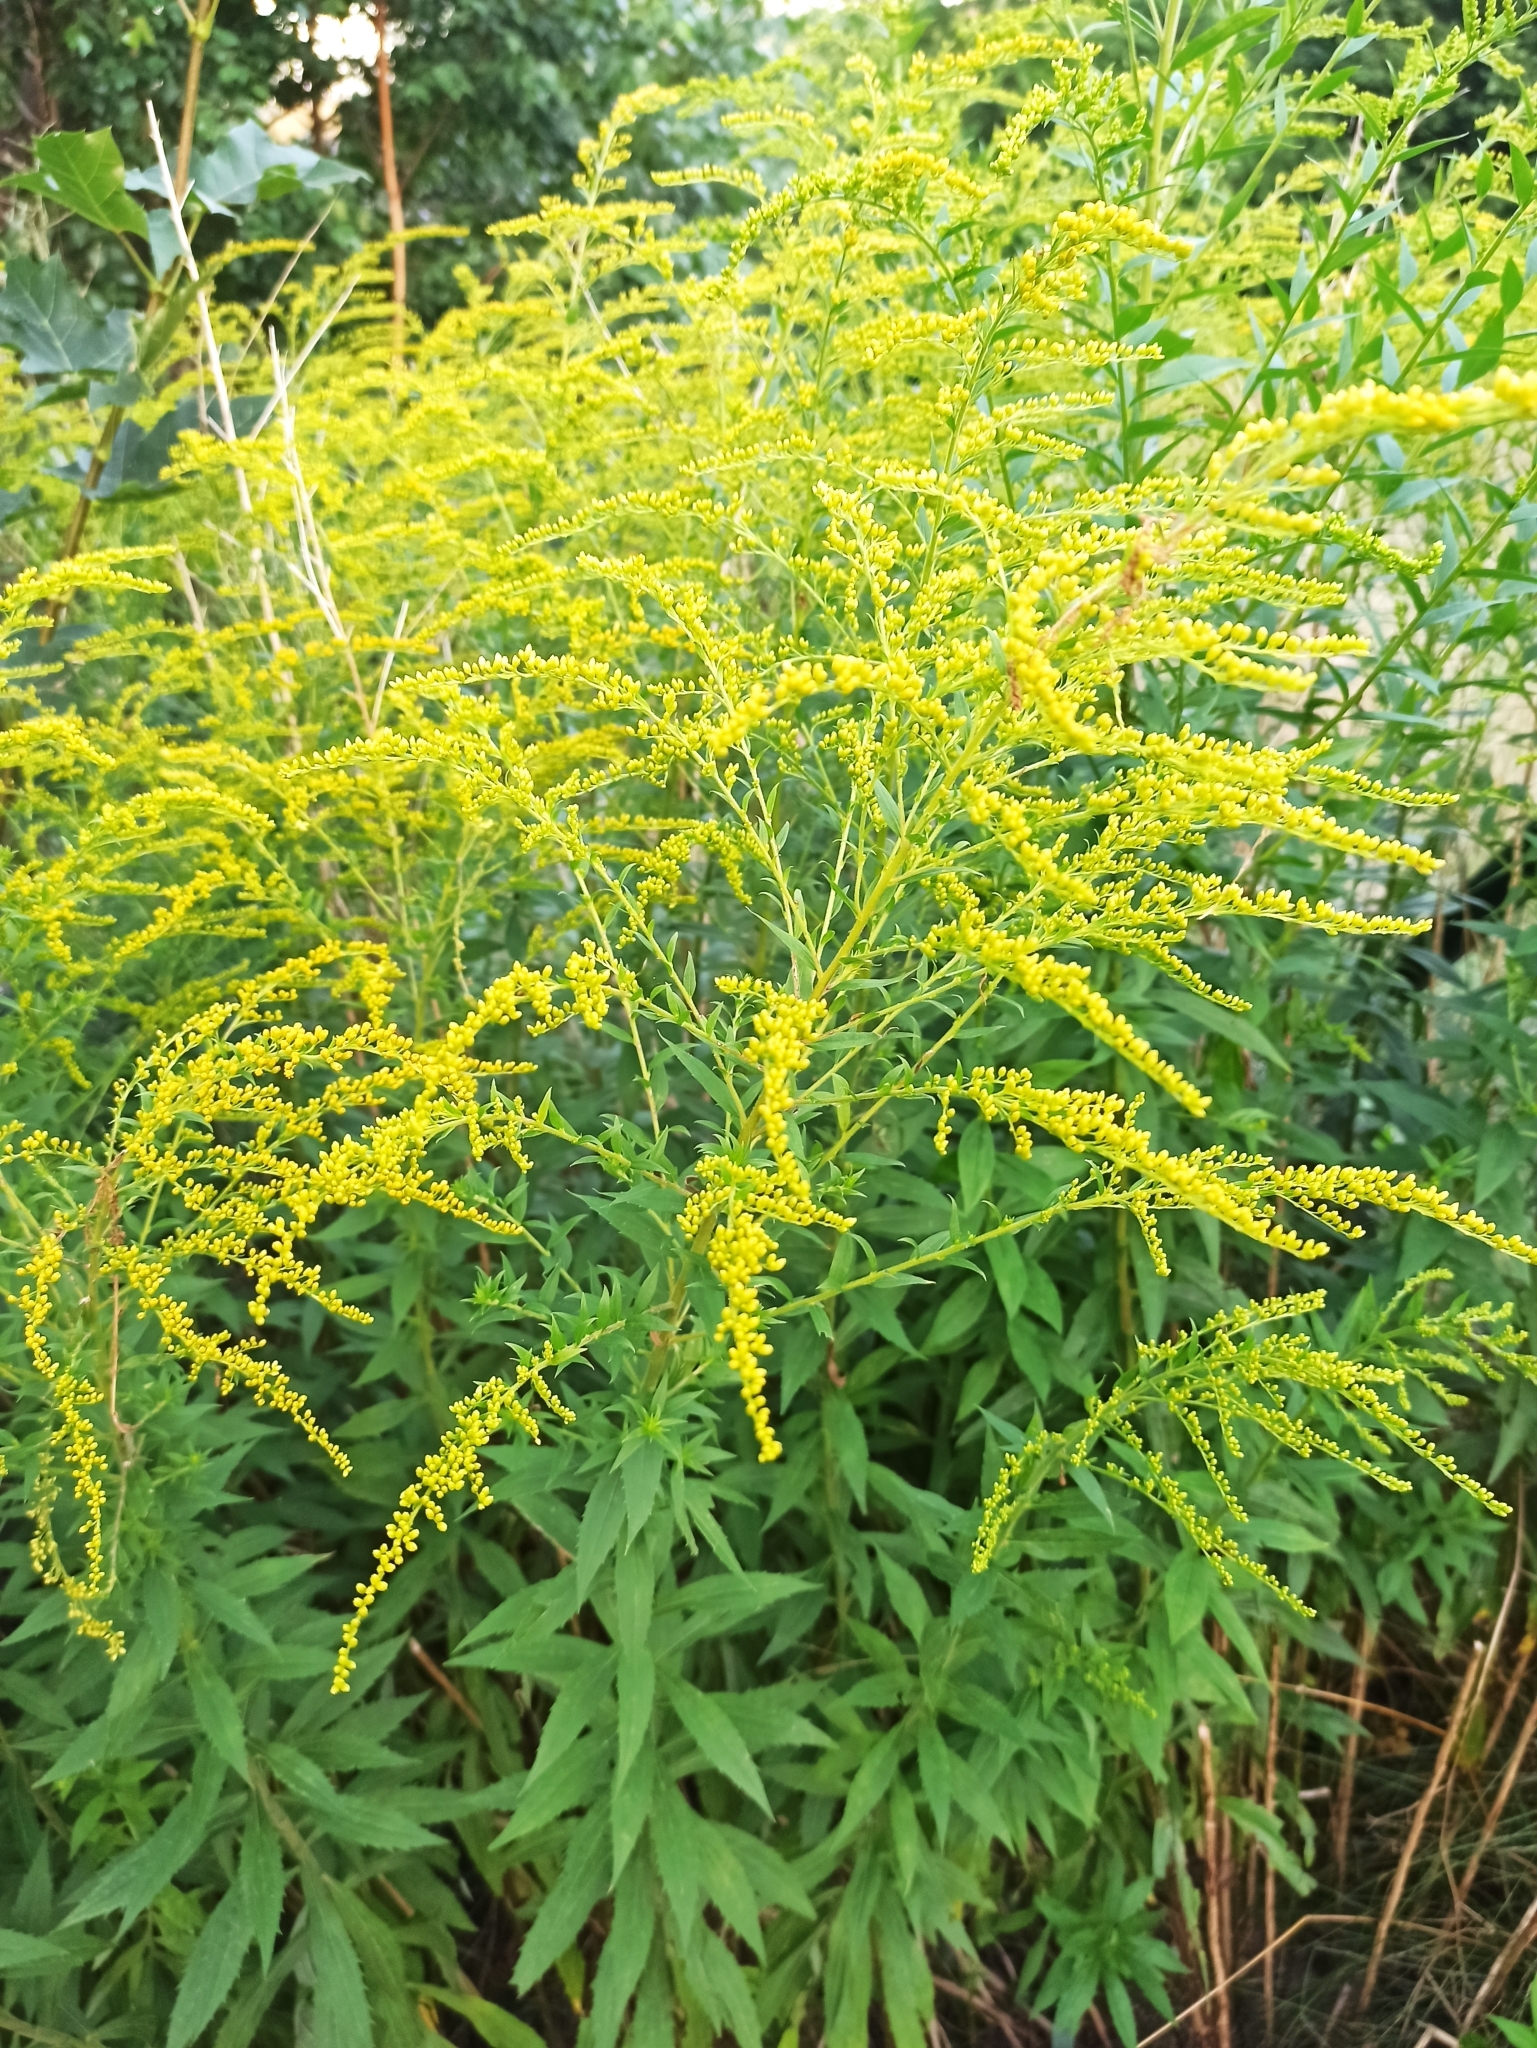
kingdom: Plantae
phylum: Tracheophyta
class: Magnoliopsida
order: Asterales
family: Asteraceae
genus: Solidago
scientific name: Solidago canadensis
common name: Canada goldenrod
